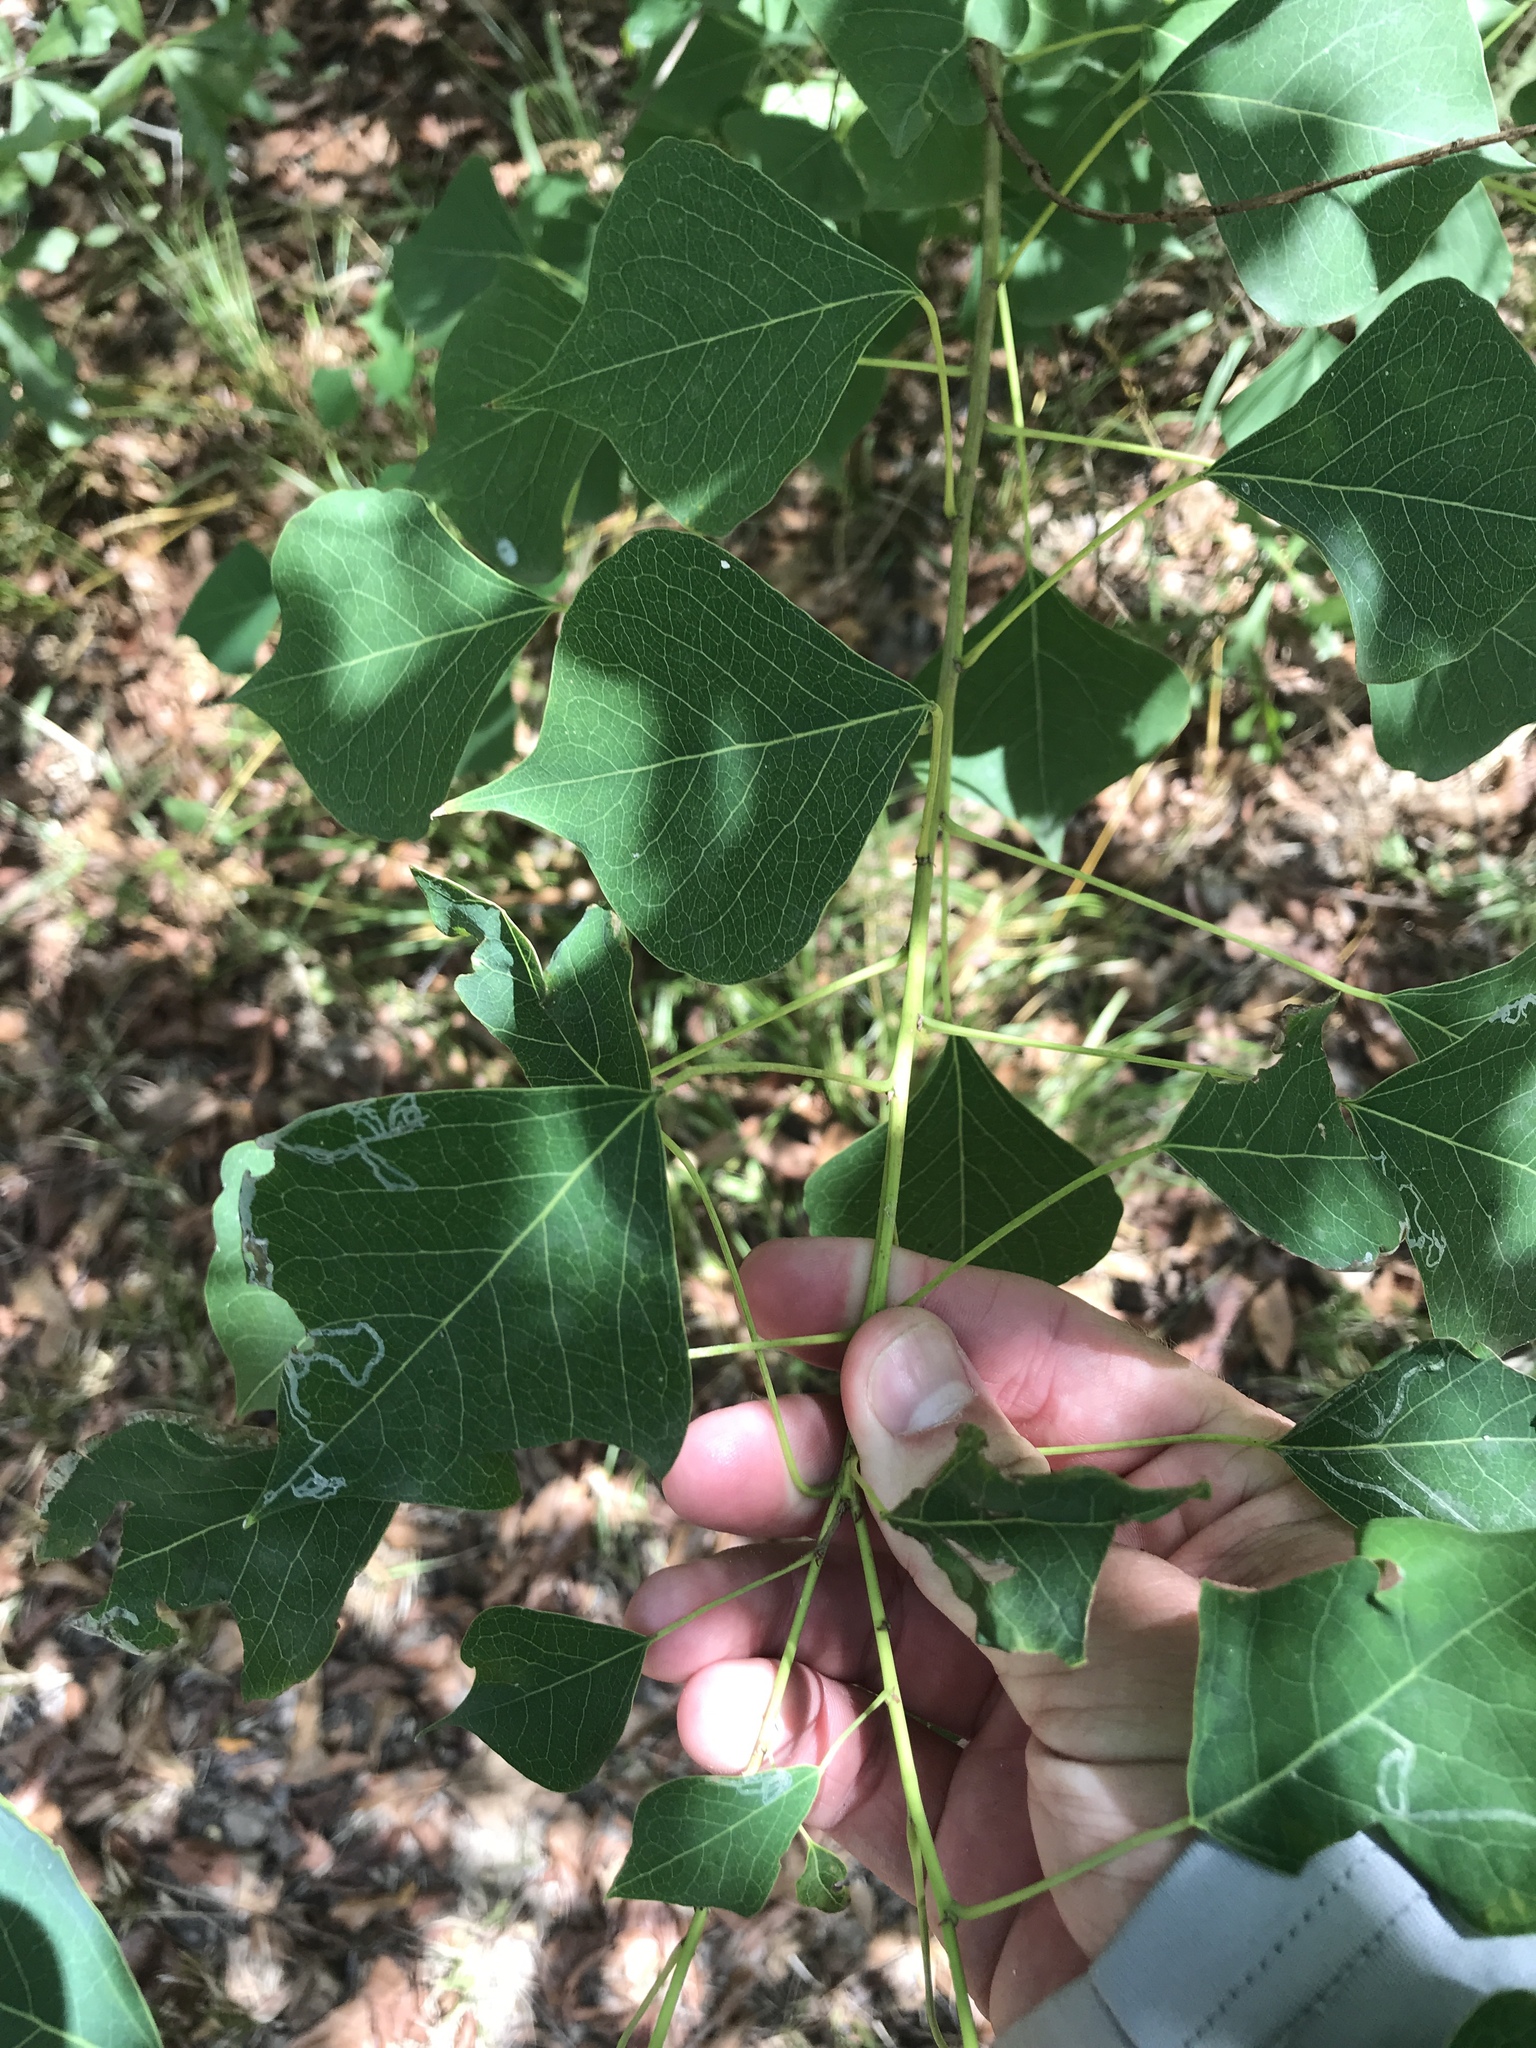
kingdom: Plantae
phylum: Tracheophyta
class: Magnoliopsida
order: Malpighiales
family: Euphorbiaceae
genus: Triadica
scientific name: Triadica sebifera
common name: Chinese tallow
